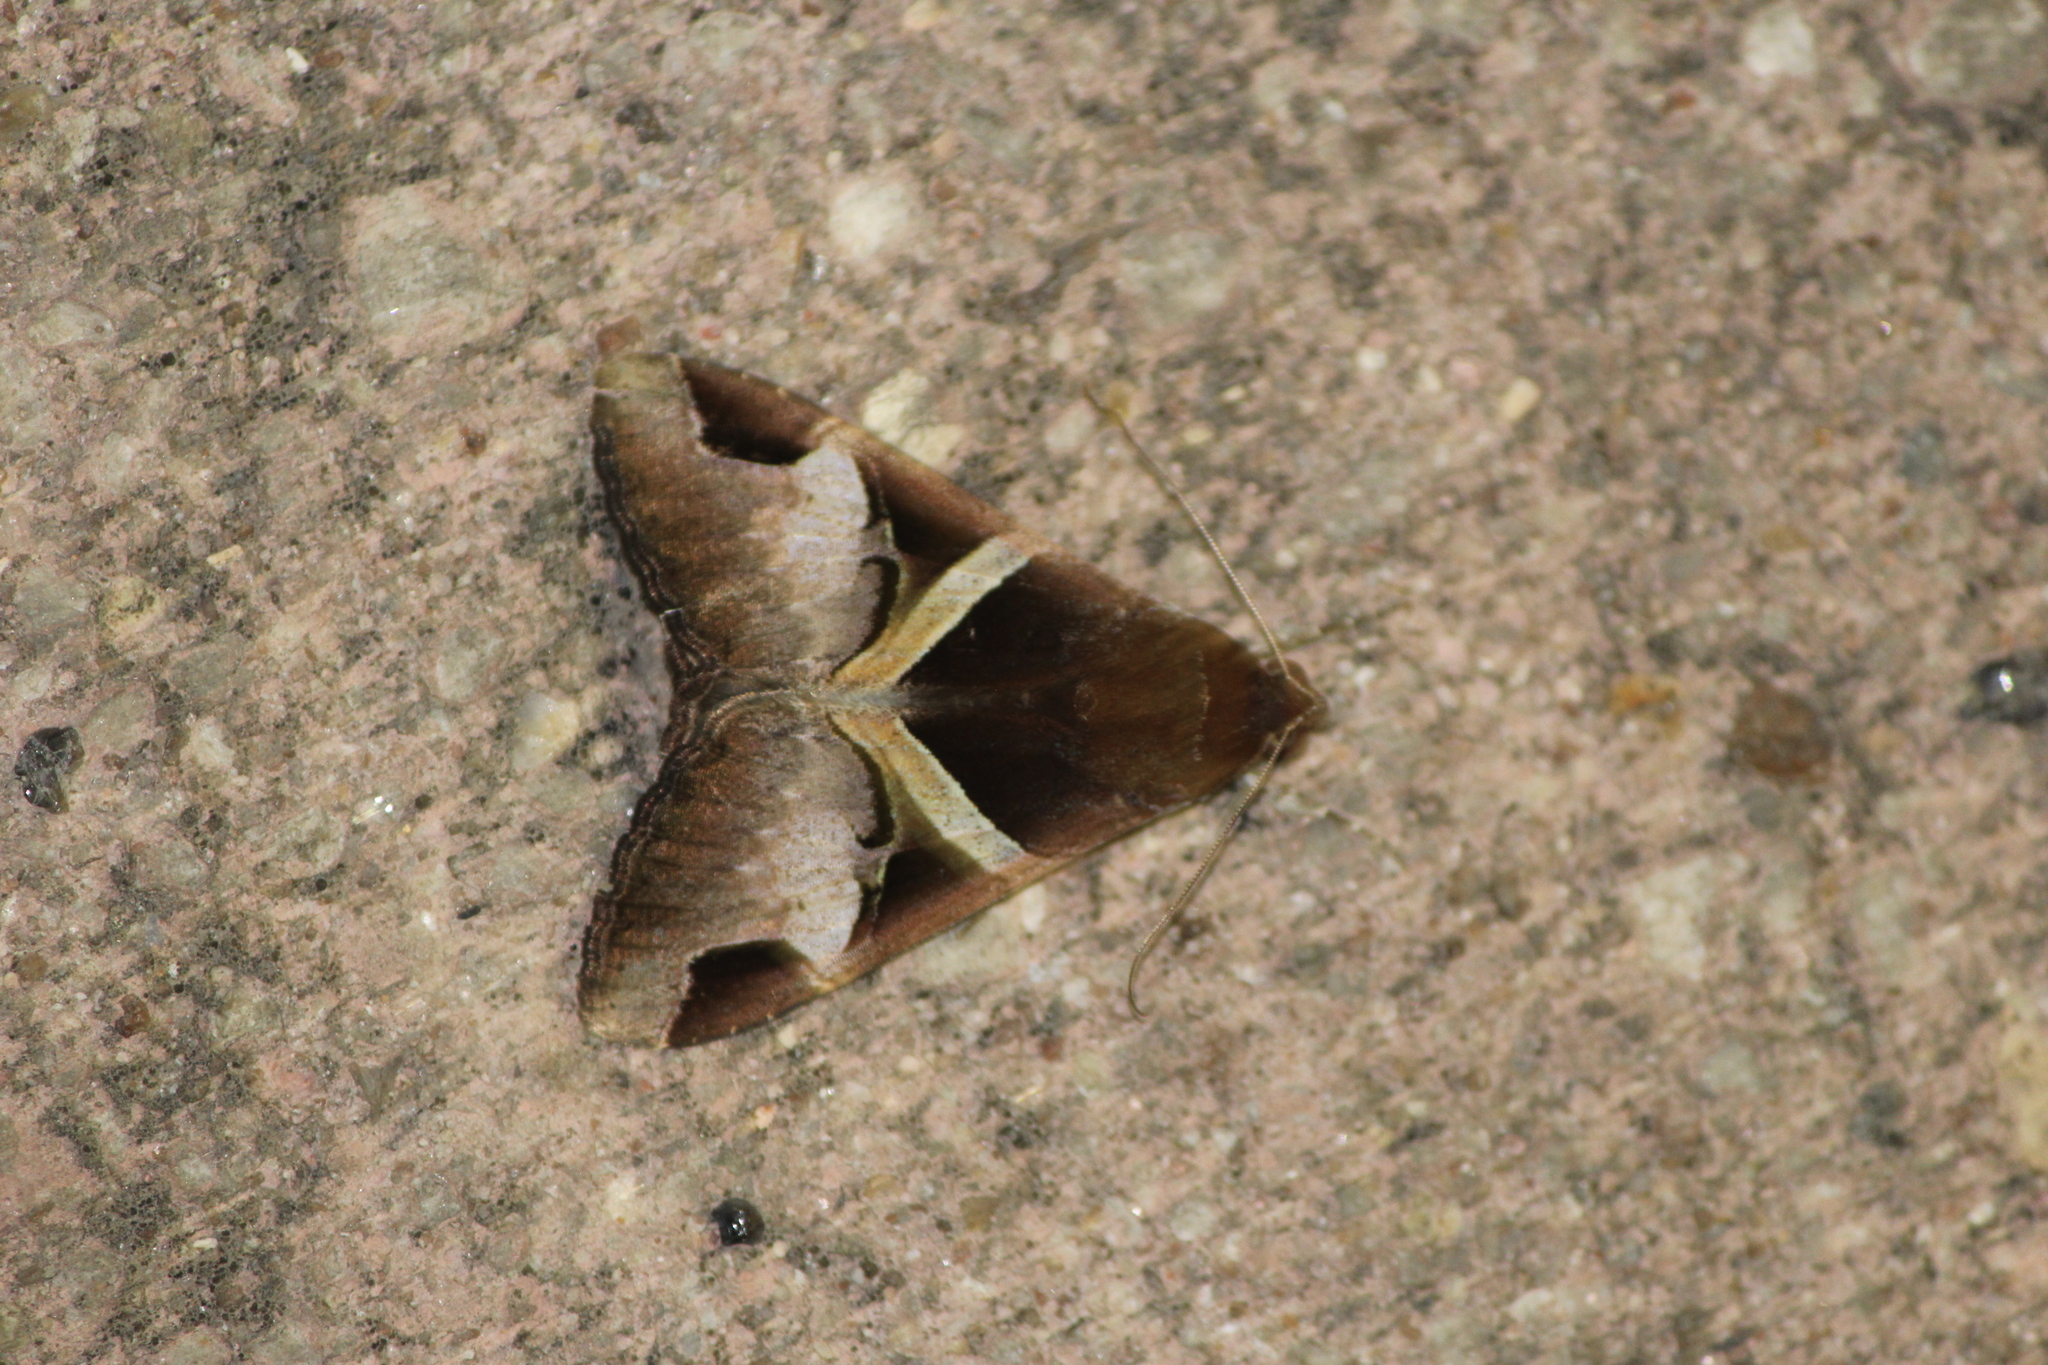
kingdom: Animalia
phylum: Arthropoda
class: Insecta
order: Lepidoptera
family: Erebidae
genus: Melipotis
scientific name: Melipotis fasciolaris
